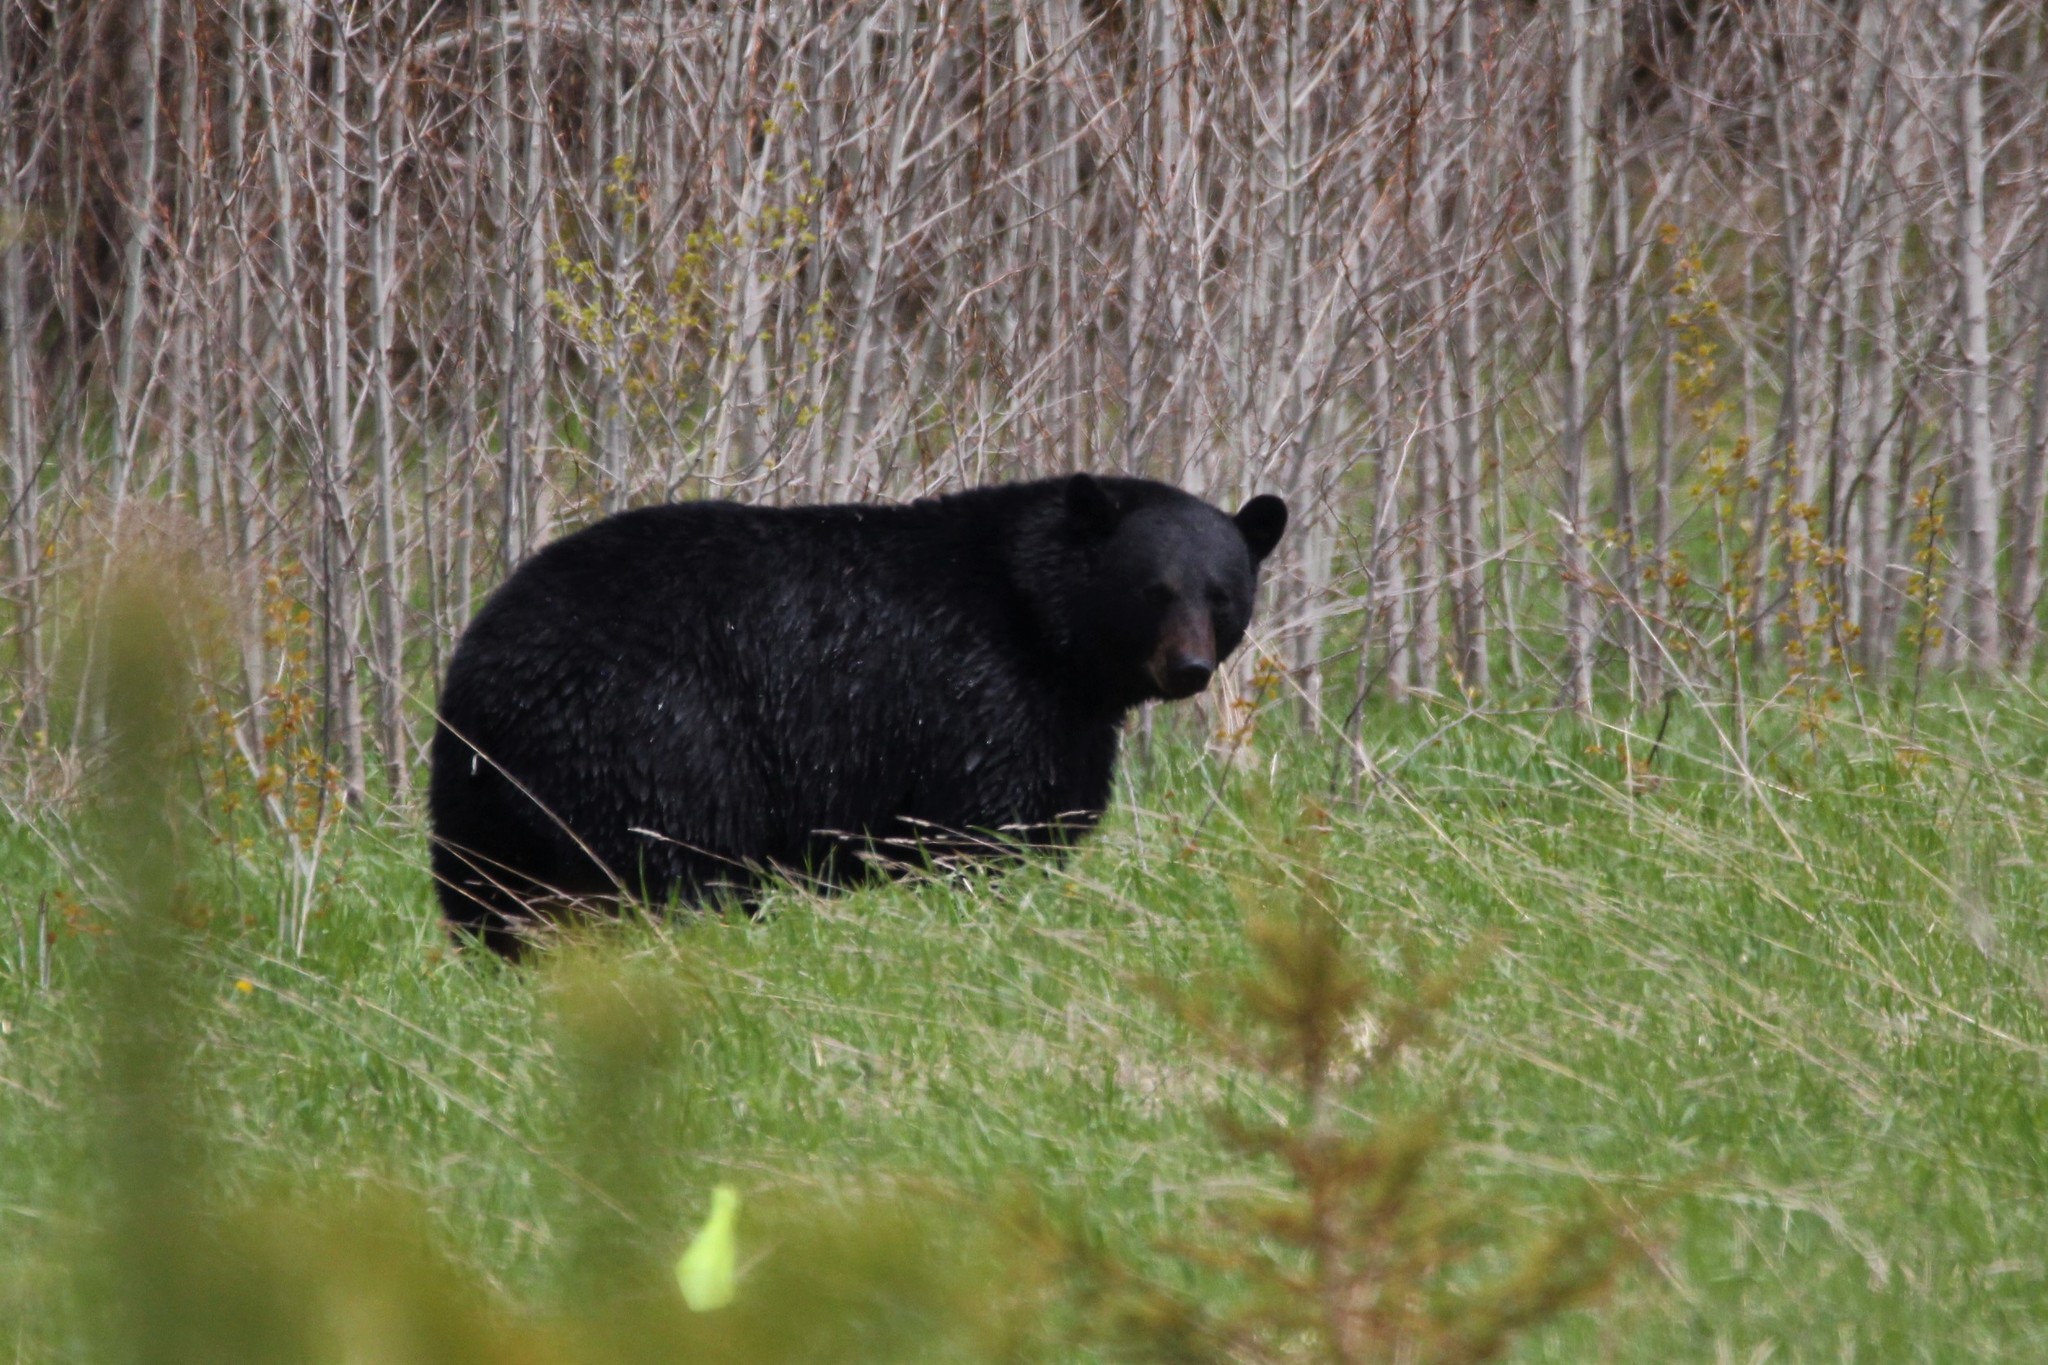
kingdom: Animalia
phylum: Chordata
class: Mammalia
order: Carnivora
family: Ursidae
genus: Ursus
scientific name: Ursus americanus
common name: American black bear
